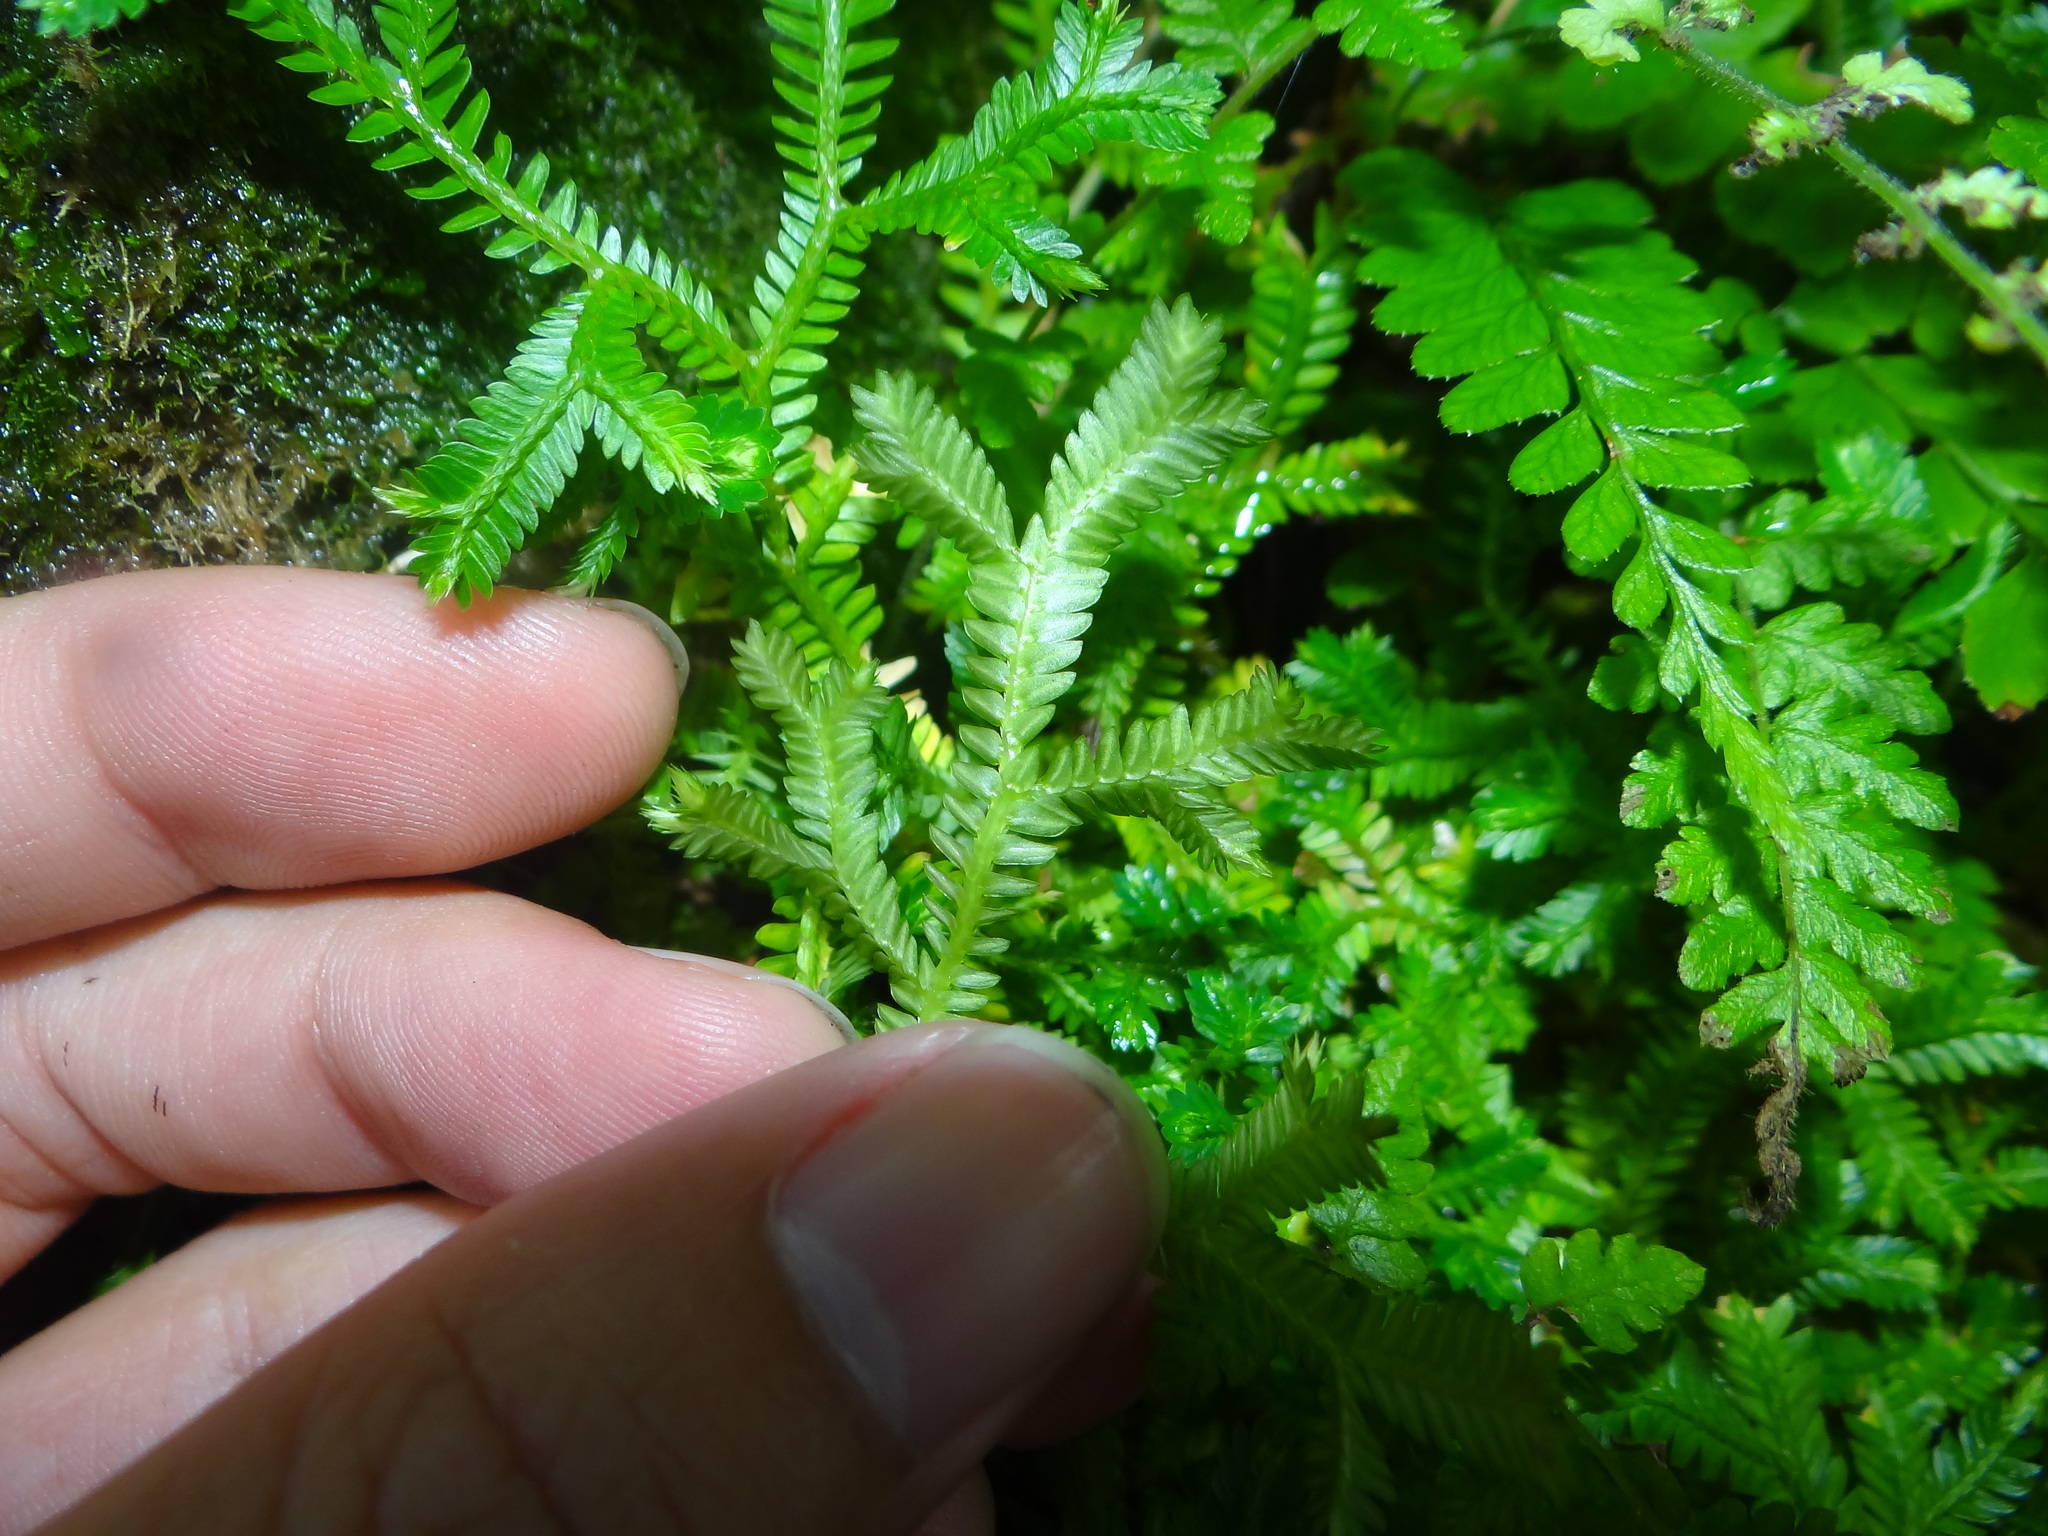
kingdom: Plantae
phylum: Tracheophyta
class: Lycopodiopsida
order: Selaginellales
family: Selaginellaceae
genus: Selaginella
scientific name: Selaginella doederleinii
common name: Greater selaginella
